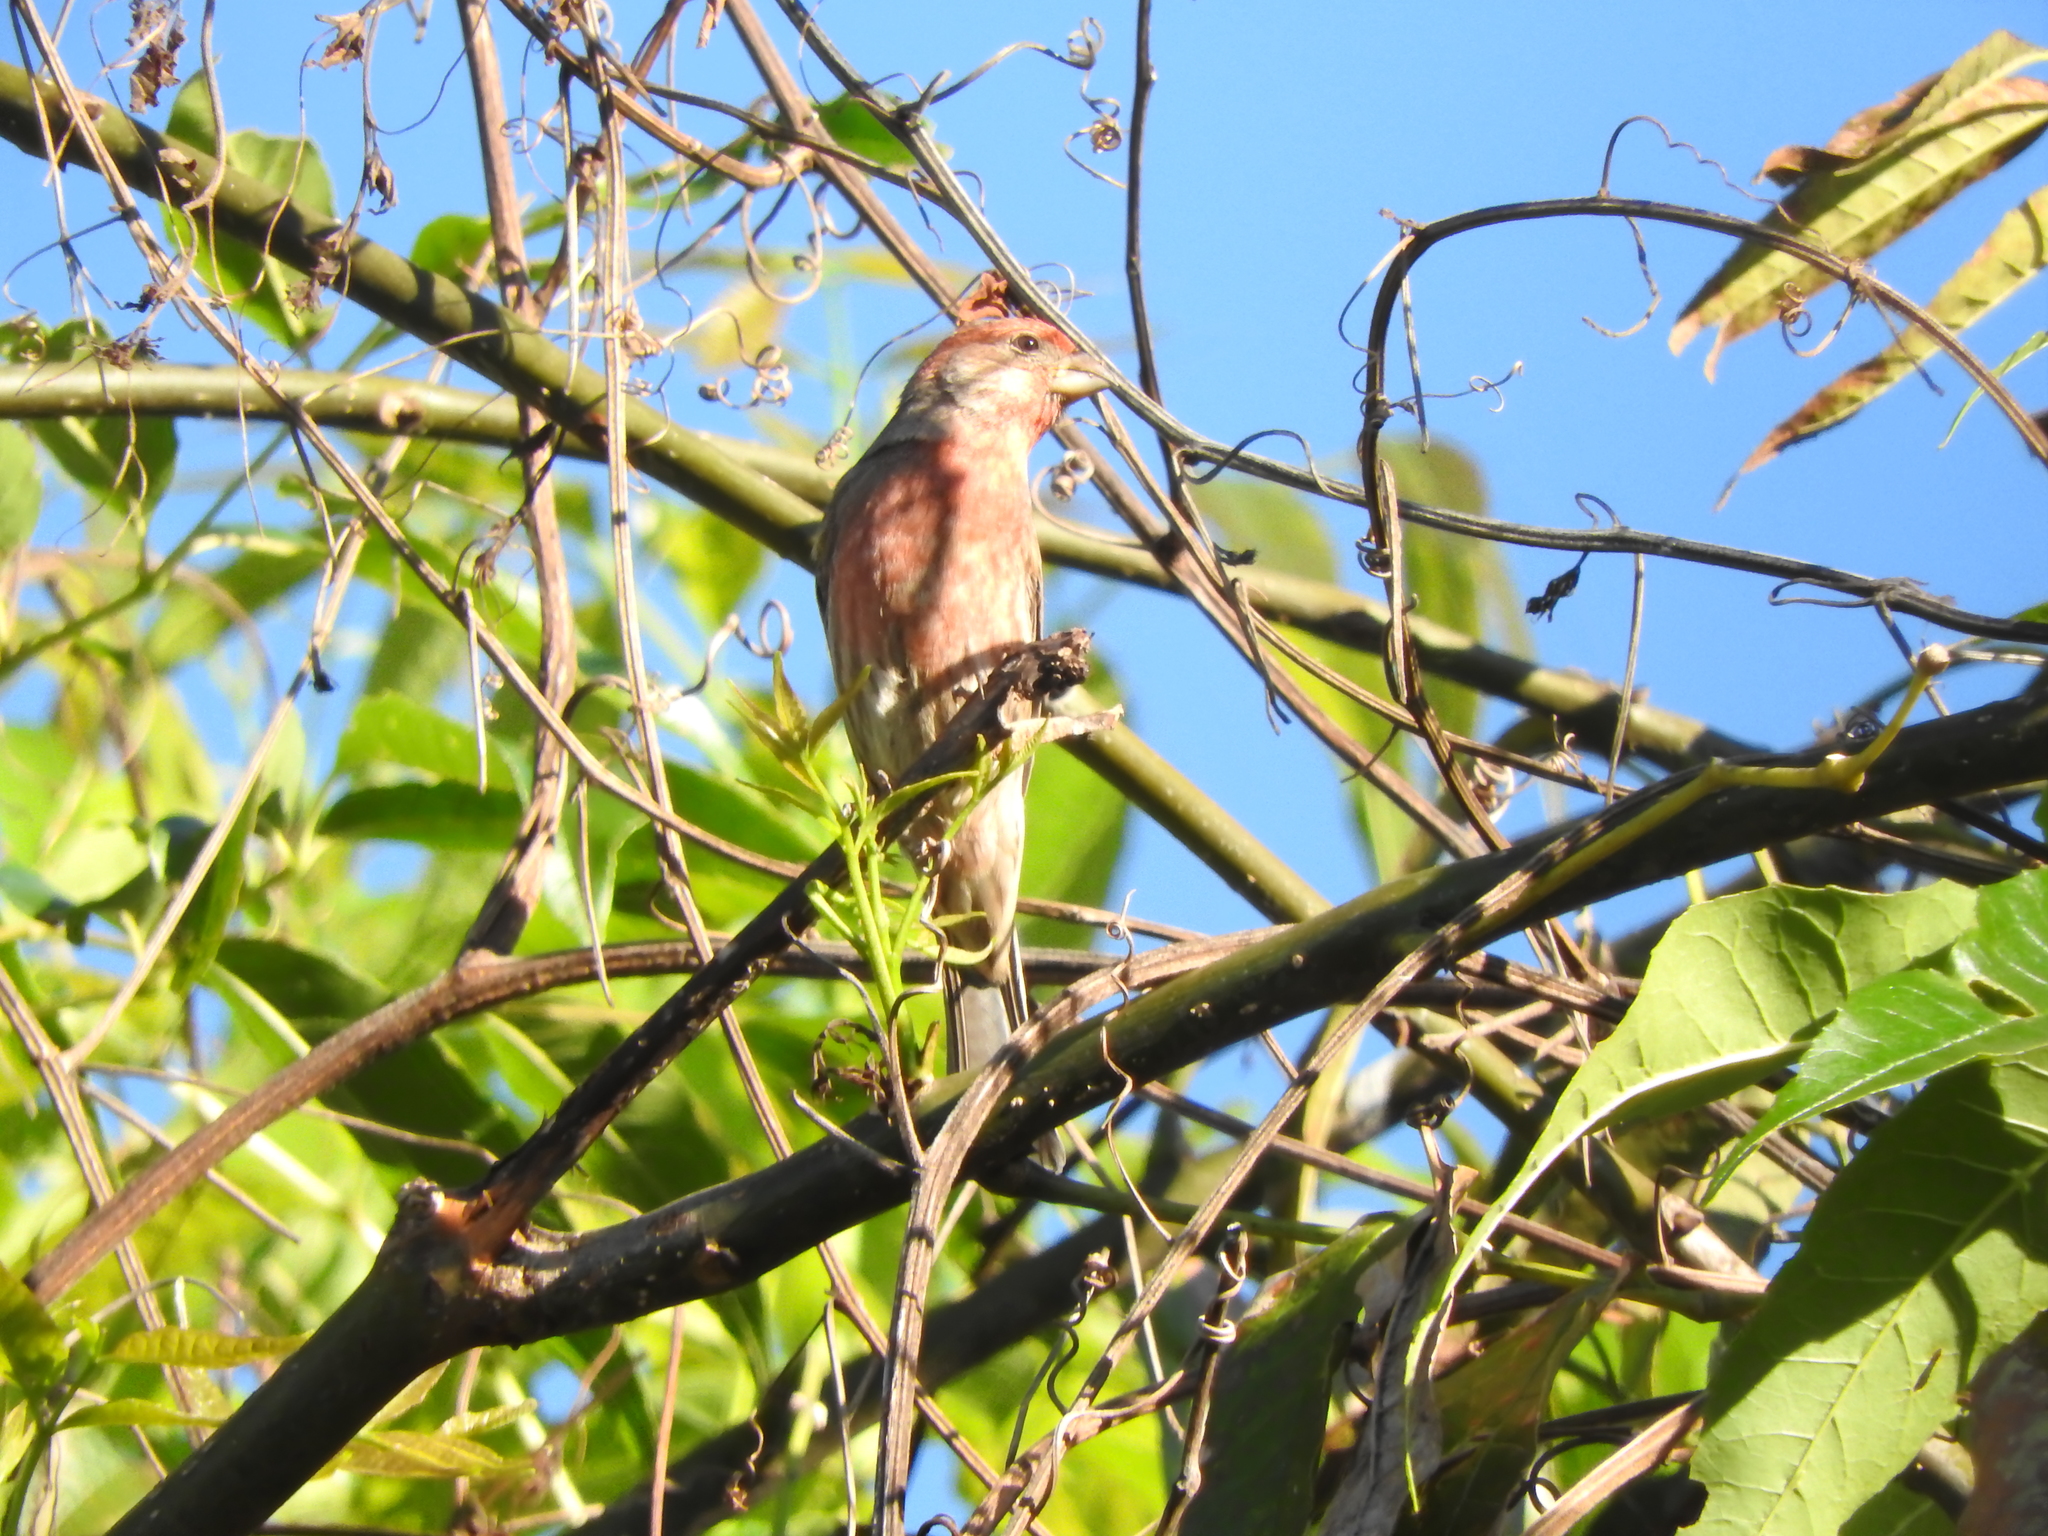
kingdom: Animalia
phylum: Chordata
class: Aves
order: Passeriformes
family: Fringillidae
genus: Haemorhous
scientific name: Haemorhous mexicanus
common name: House finch
